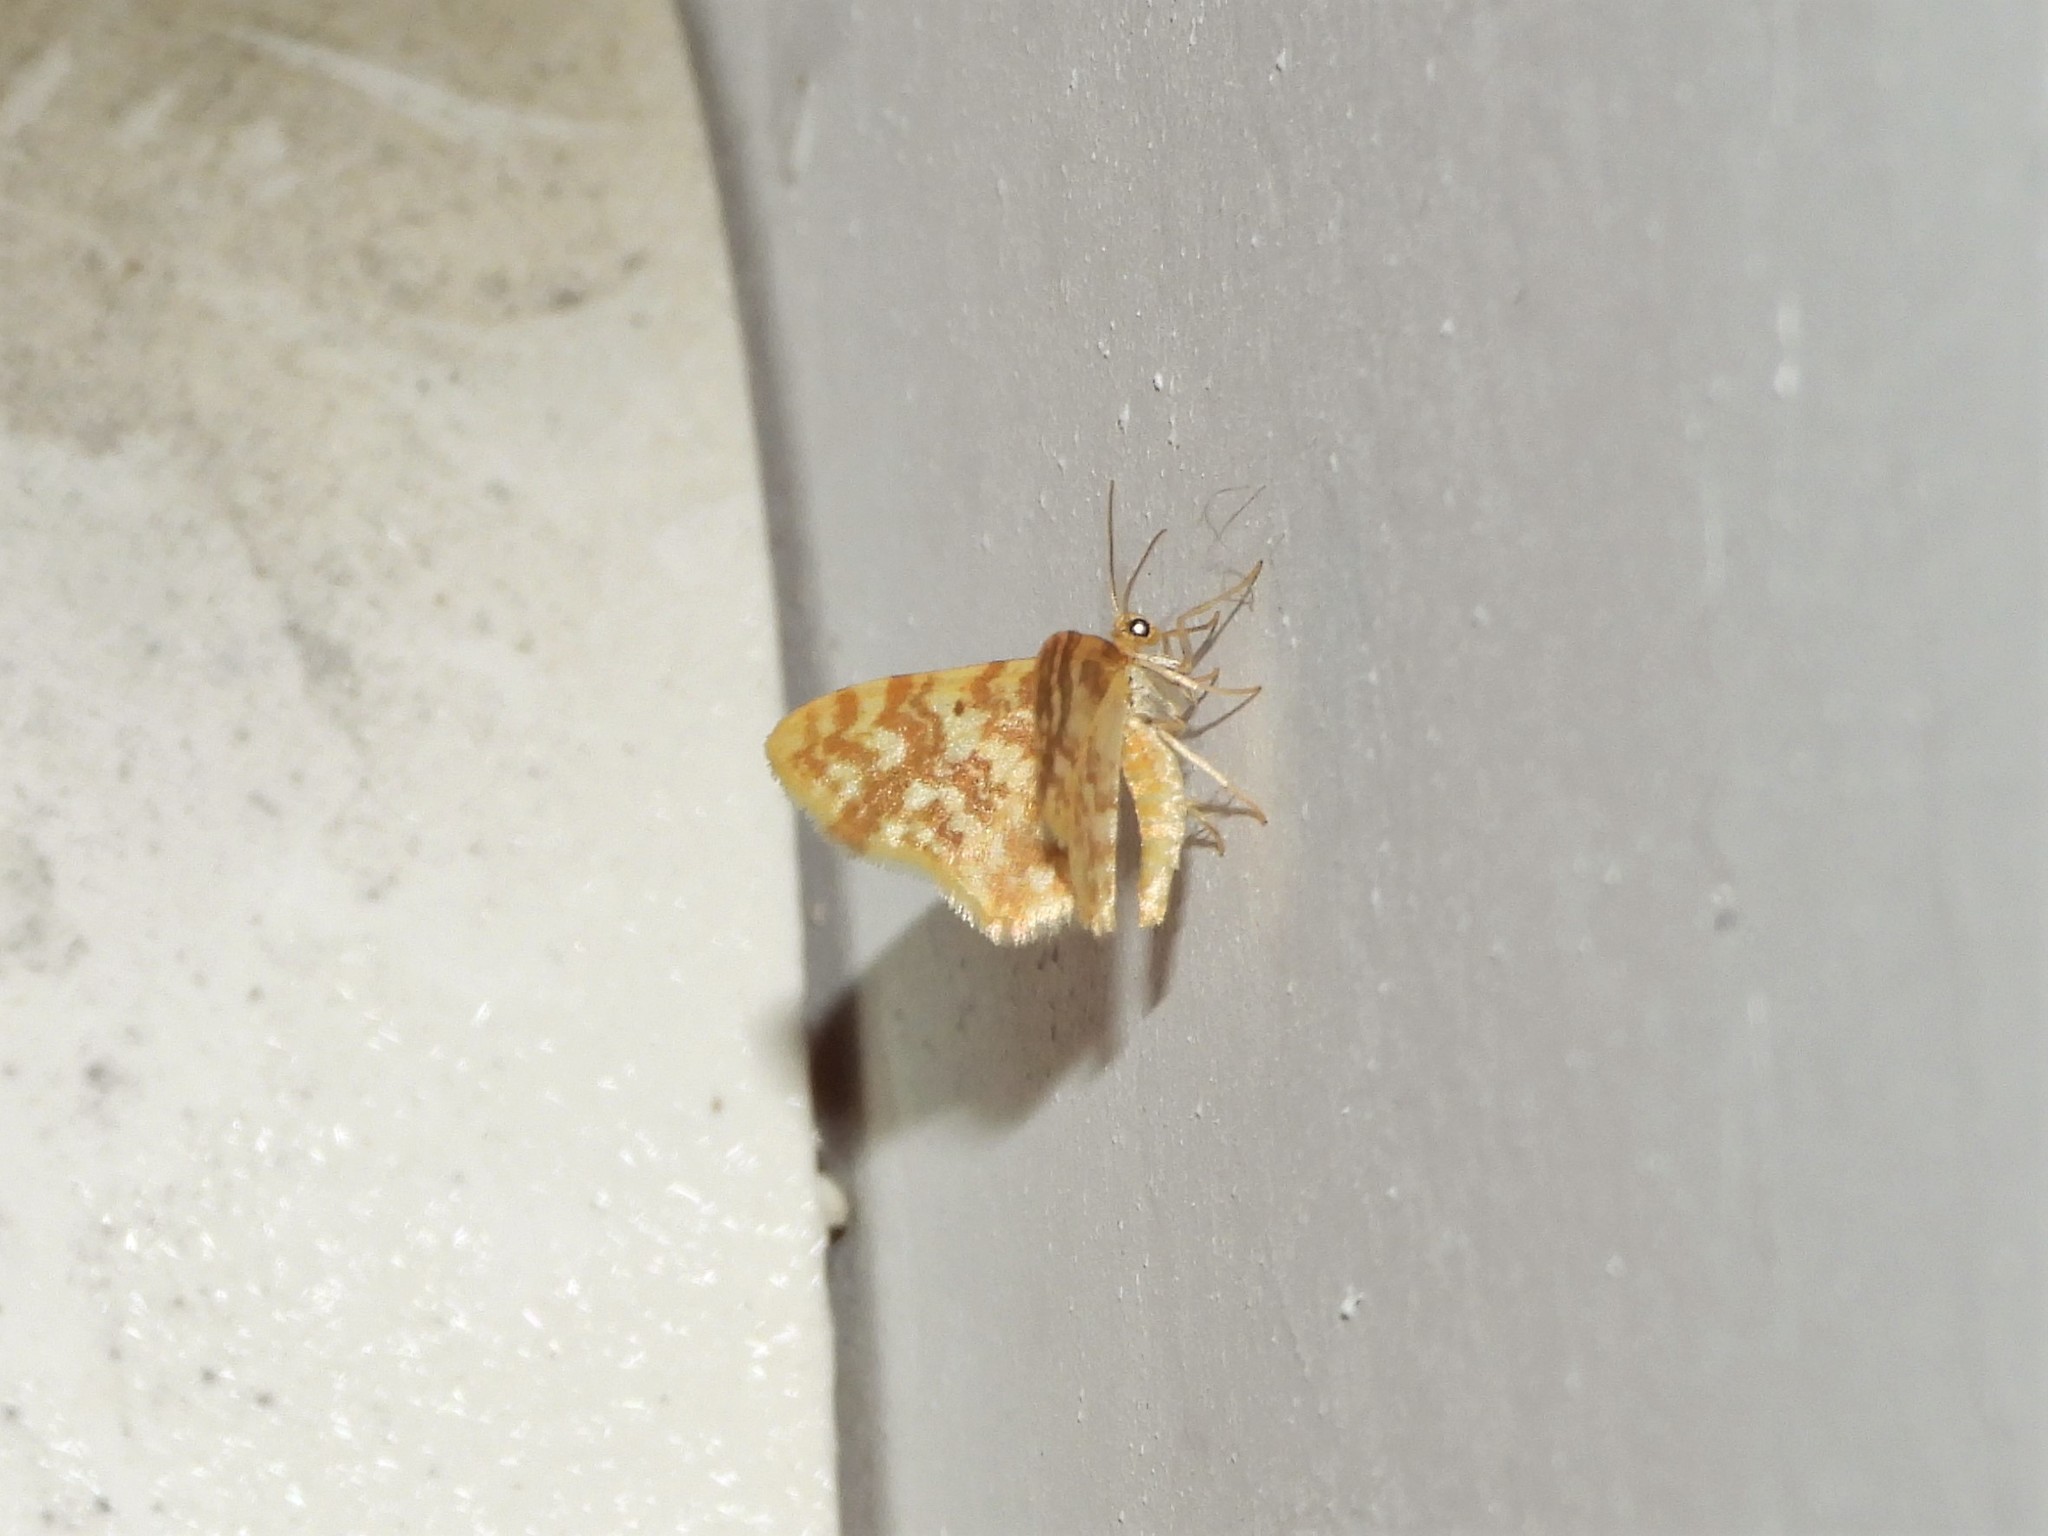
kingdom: Animalia
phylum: Arthropoda
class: Insecta
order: Lepidoptera
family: Geometridae
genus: Hydrelia
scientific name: Hydrelia flammeolaria
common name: Small yellow wave
